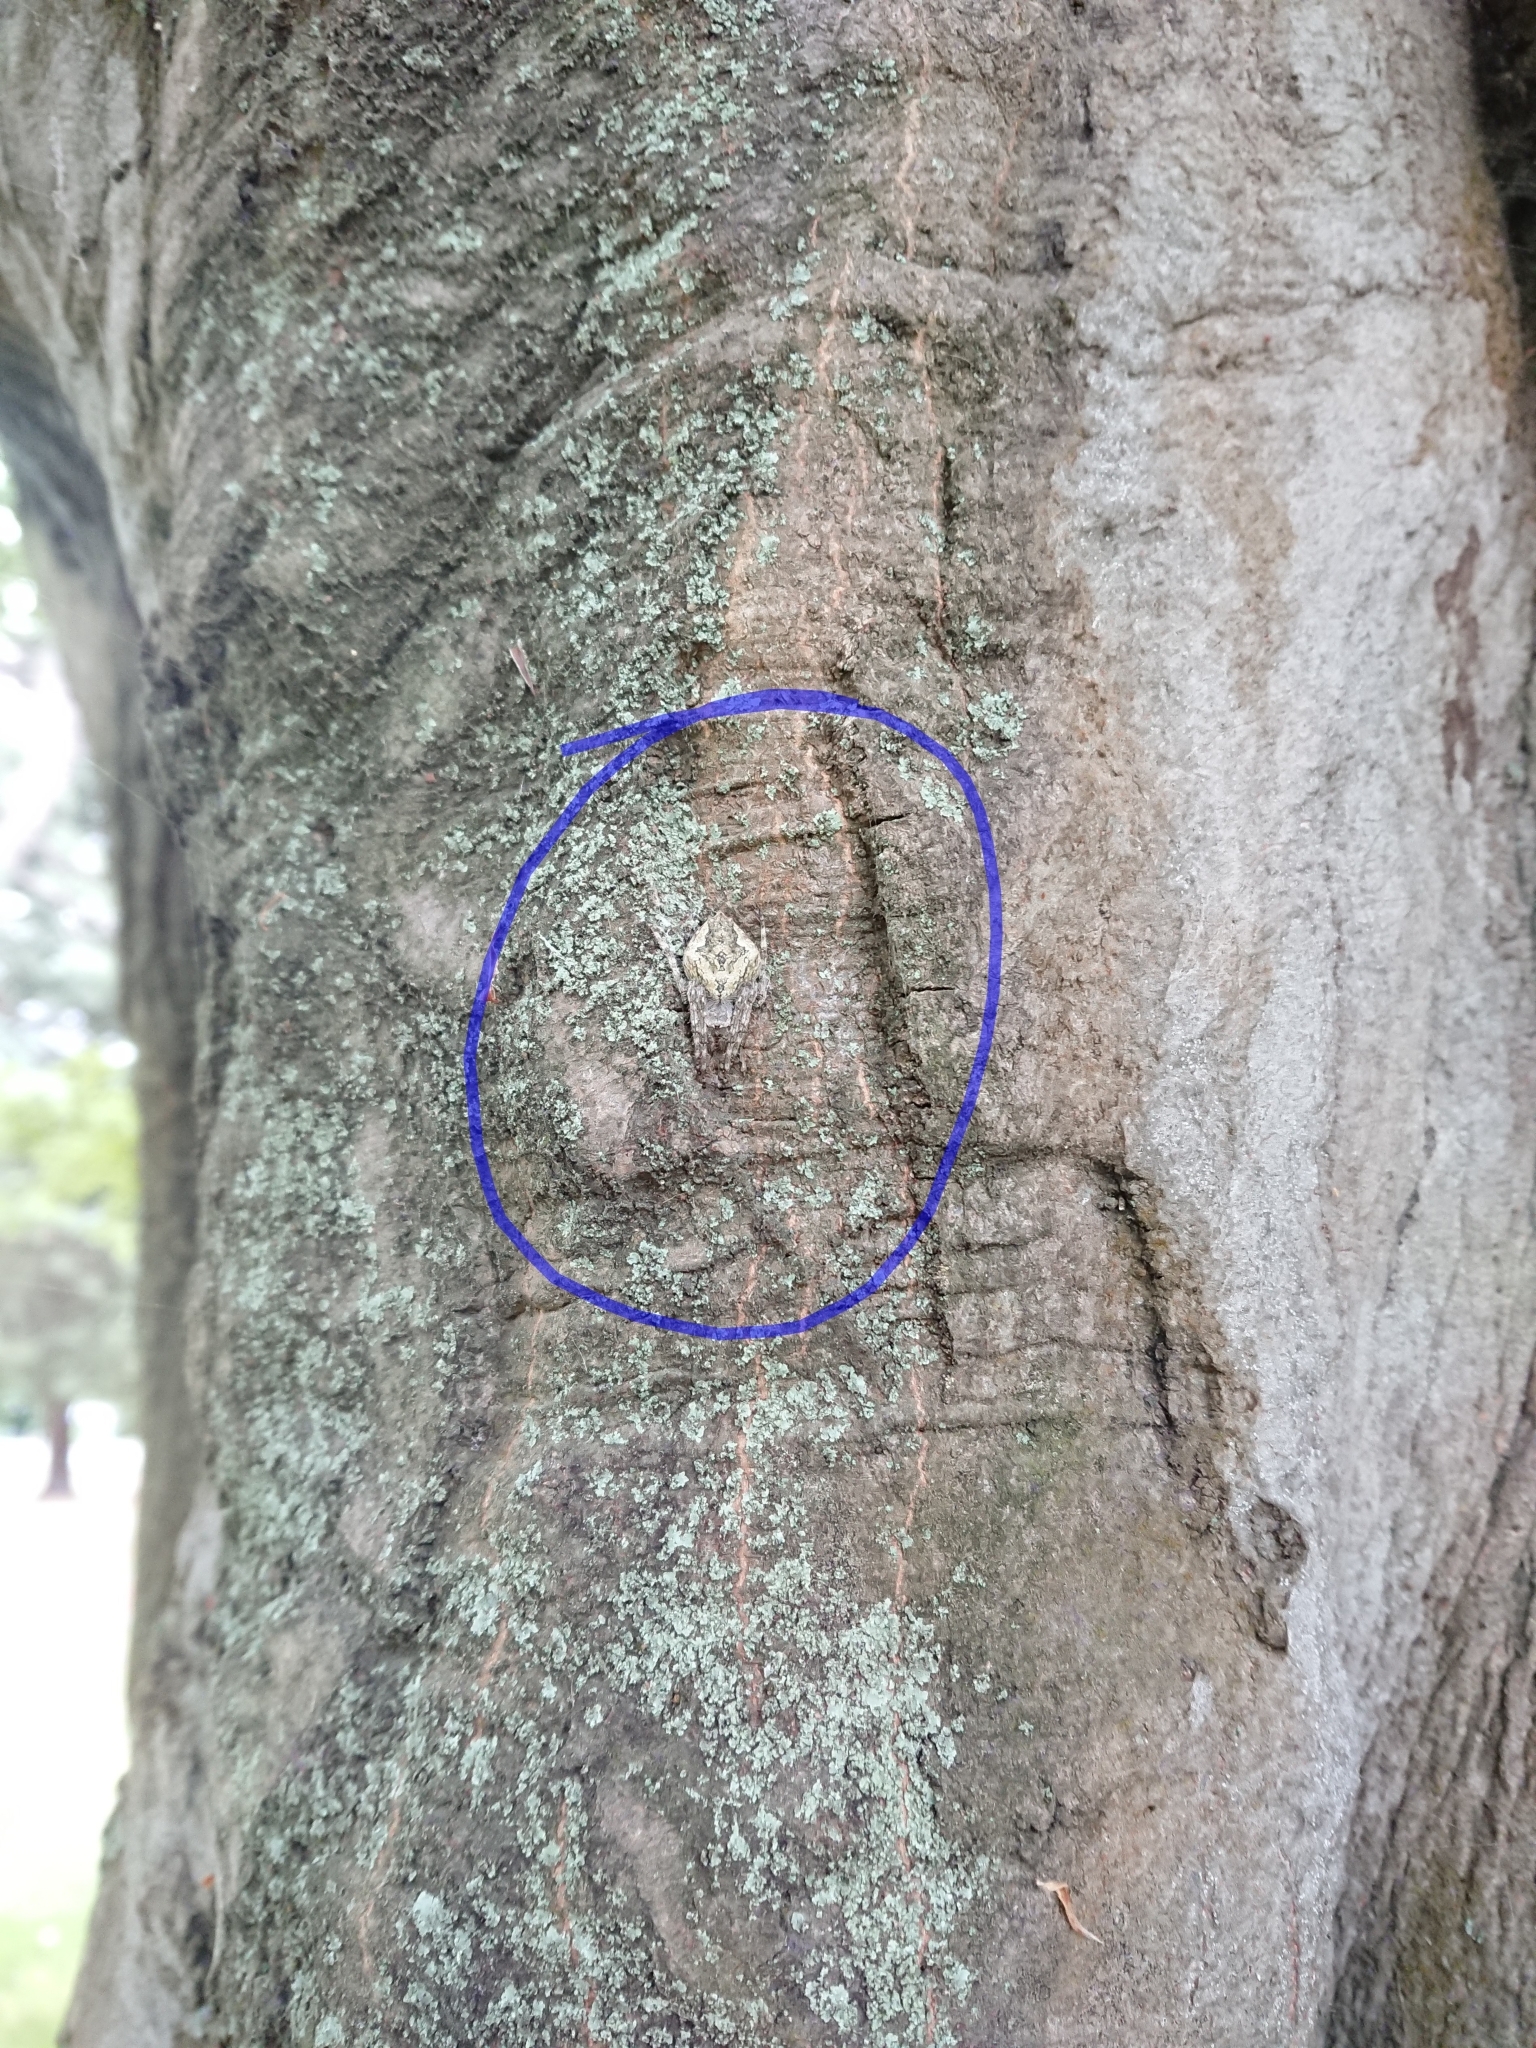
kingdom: Animalia
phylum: Arthropoda
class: Arachnida
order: Araneae
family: Araneidae
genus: Eriophora
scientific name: Eriophora pustulosa
